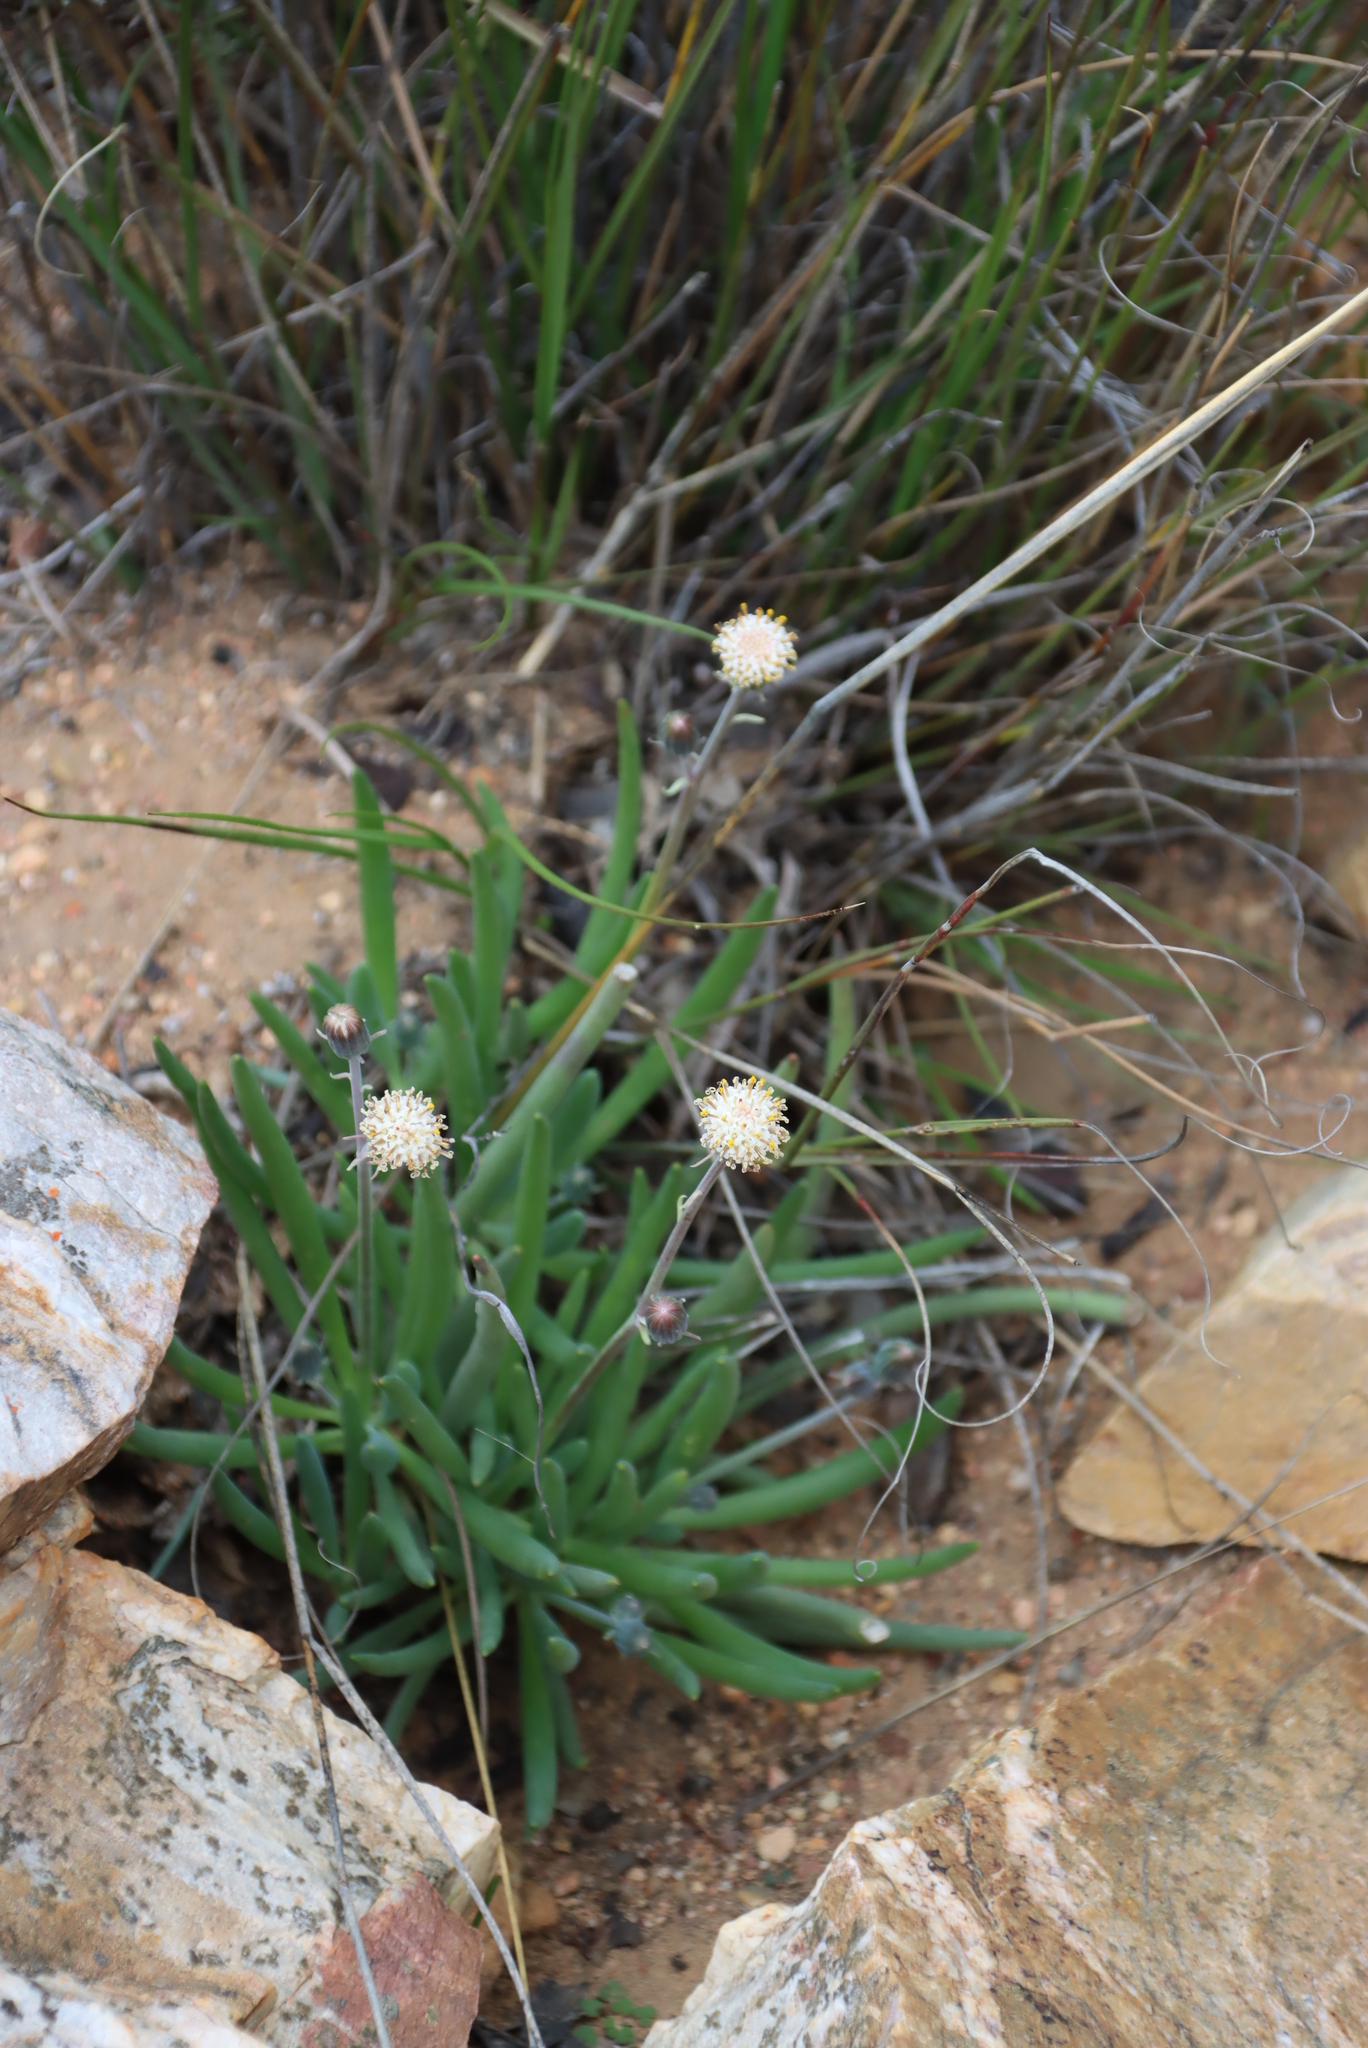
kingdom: Plantae
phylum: Tracheophyta
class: Magnoliopsida
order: Asterales
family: Asteraceae
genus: Curio
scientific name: Curio talinoides
